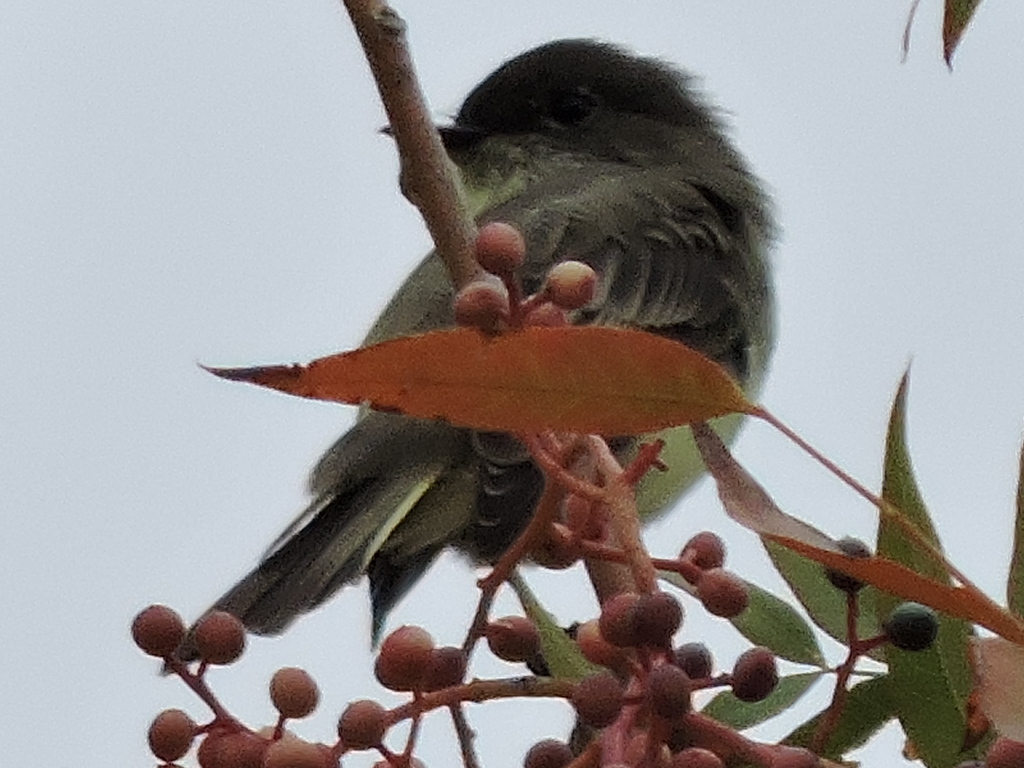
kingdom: Animalia
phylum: Chordata
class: Aves
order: Passeriformes
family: Tyrannidae
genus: Sayornis
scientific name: Sayornis phoebe
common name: Eastern phoebe
